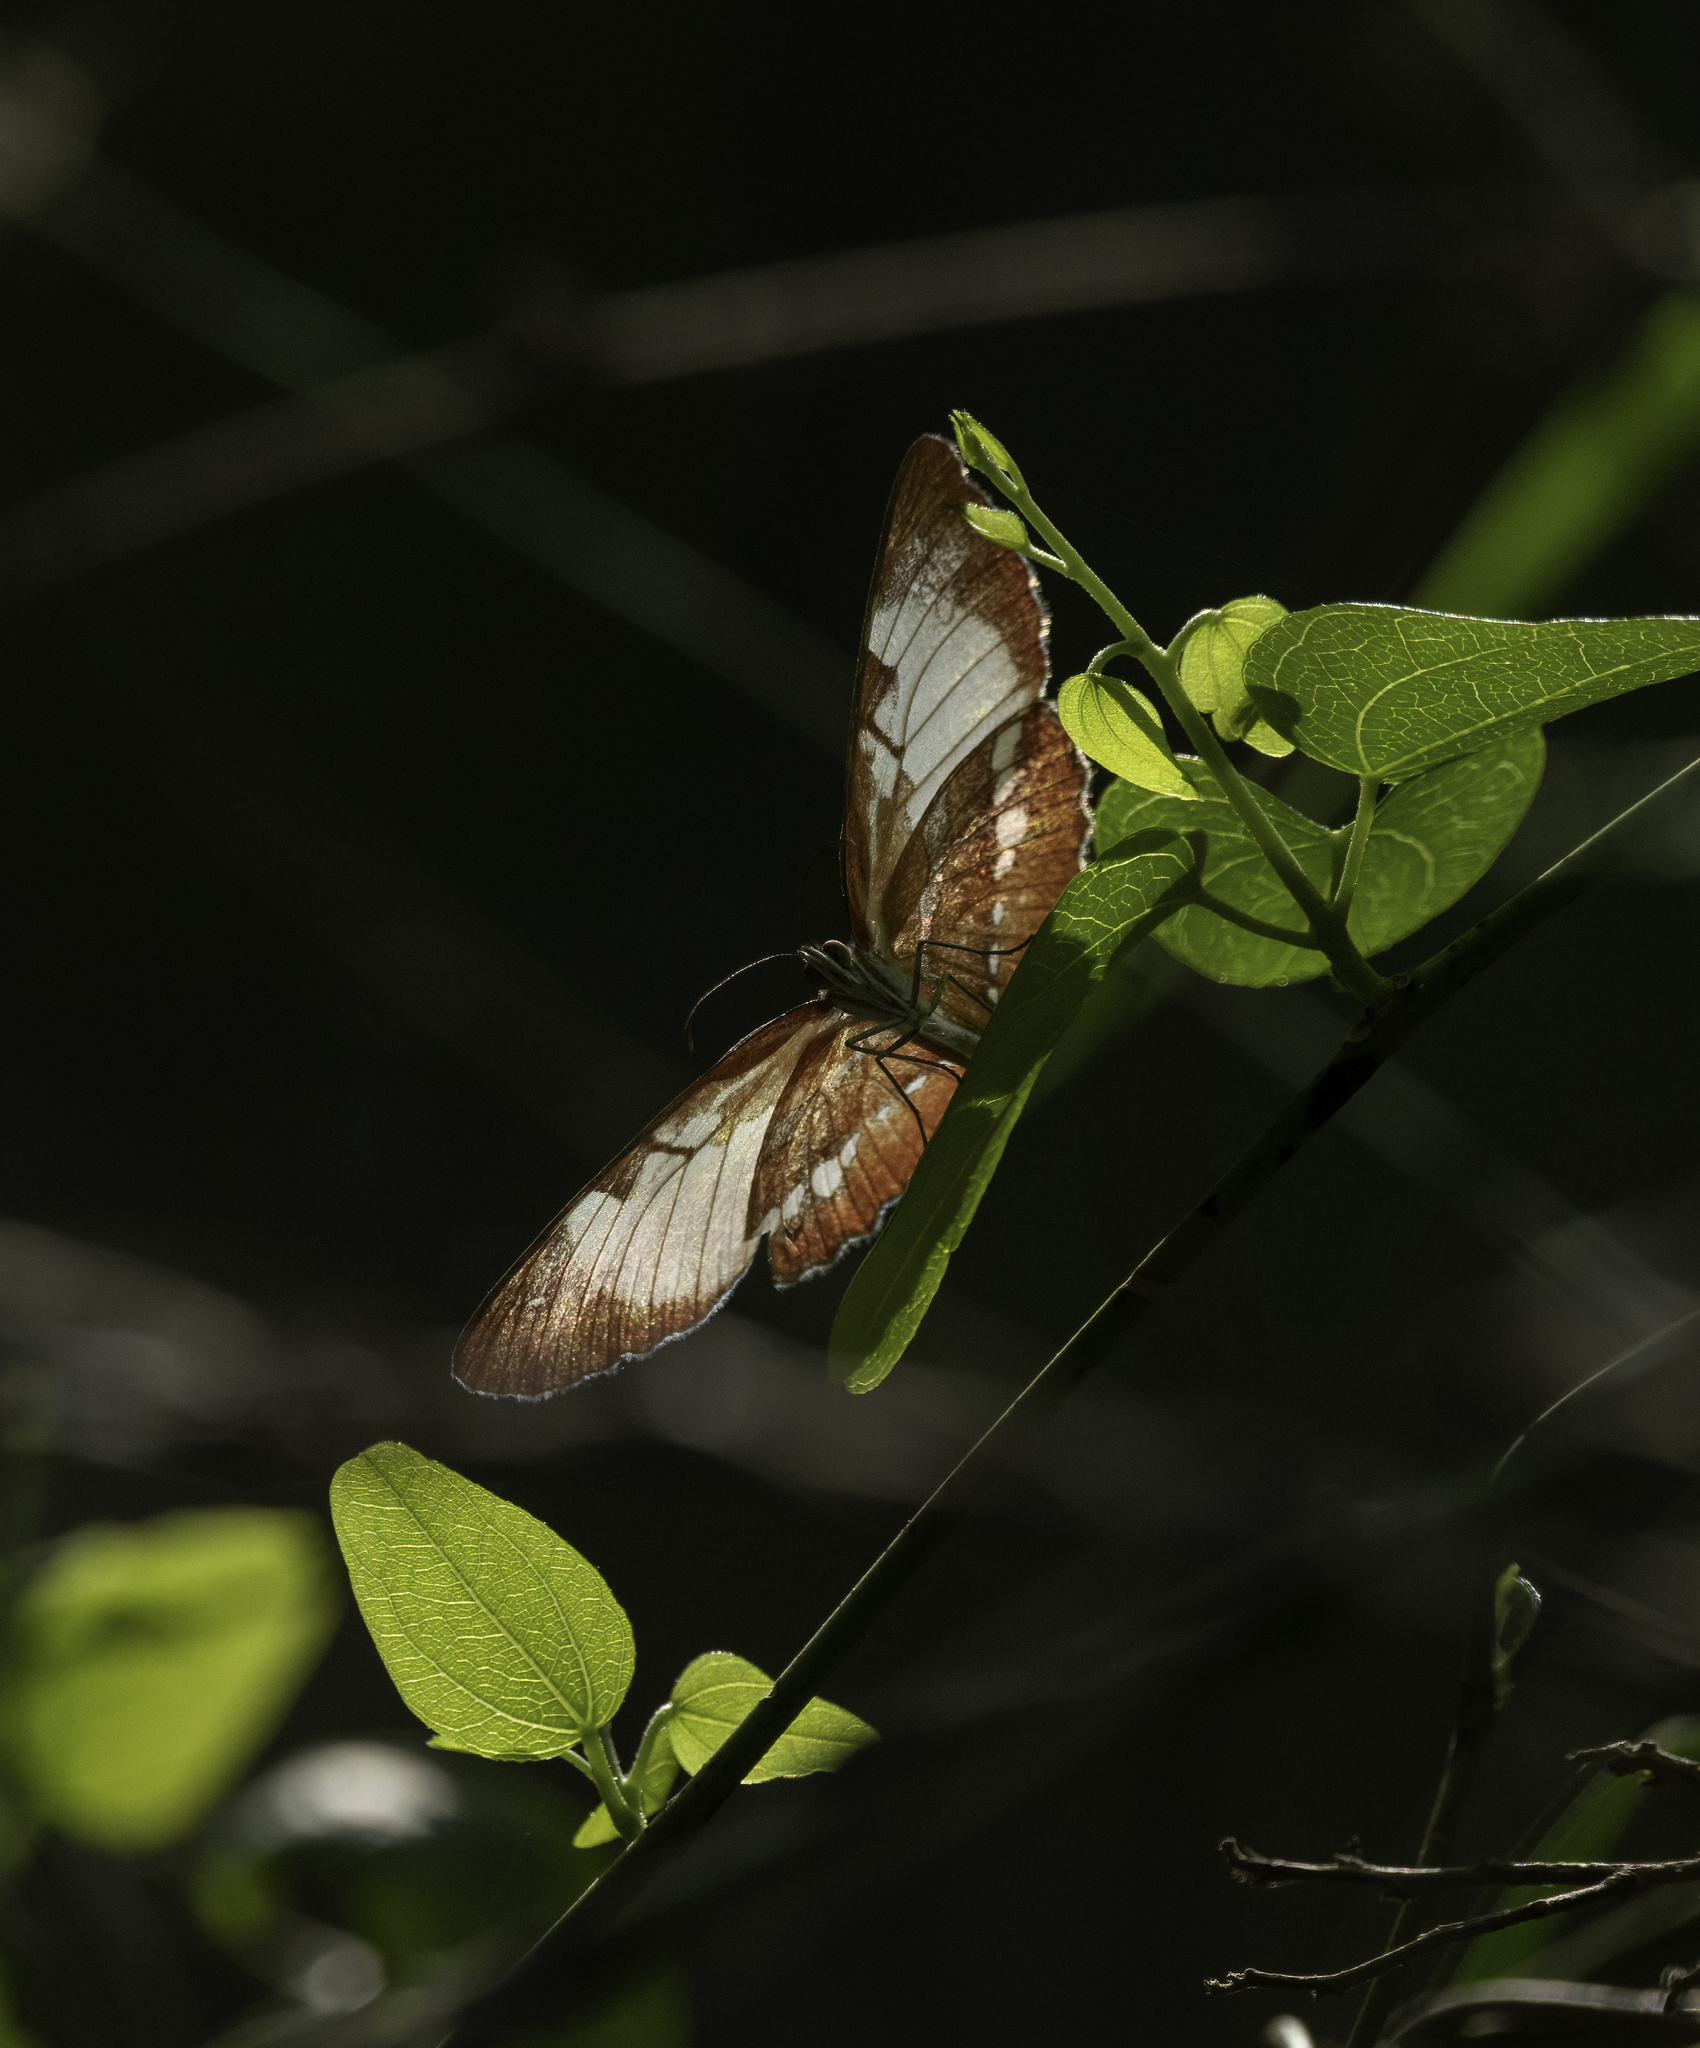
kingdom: Animalia
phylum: Arthropoda
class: Insecta
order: Lepidoptera
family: Nymphalidae
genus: Mestra
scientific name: Mestra amymone
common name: Common mestra
